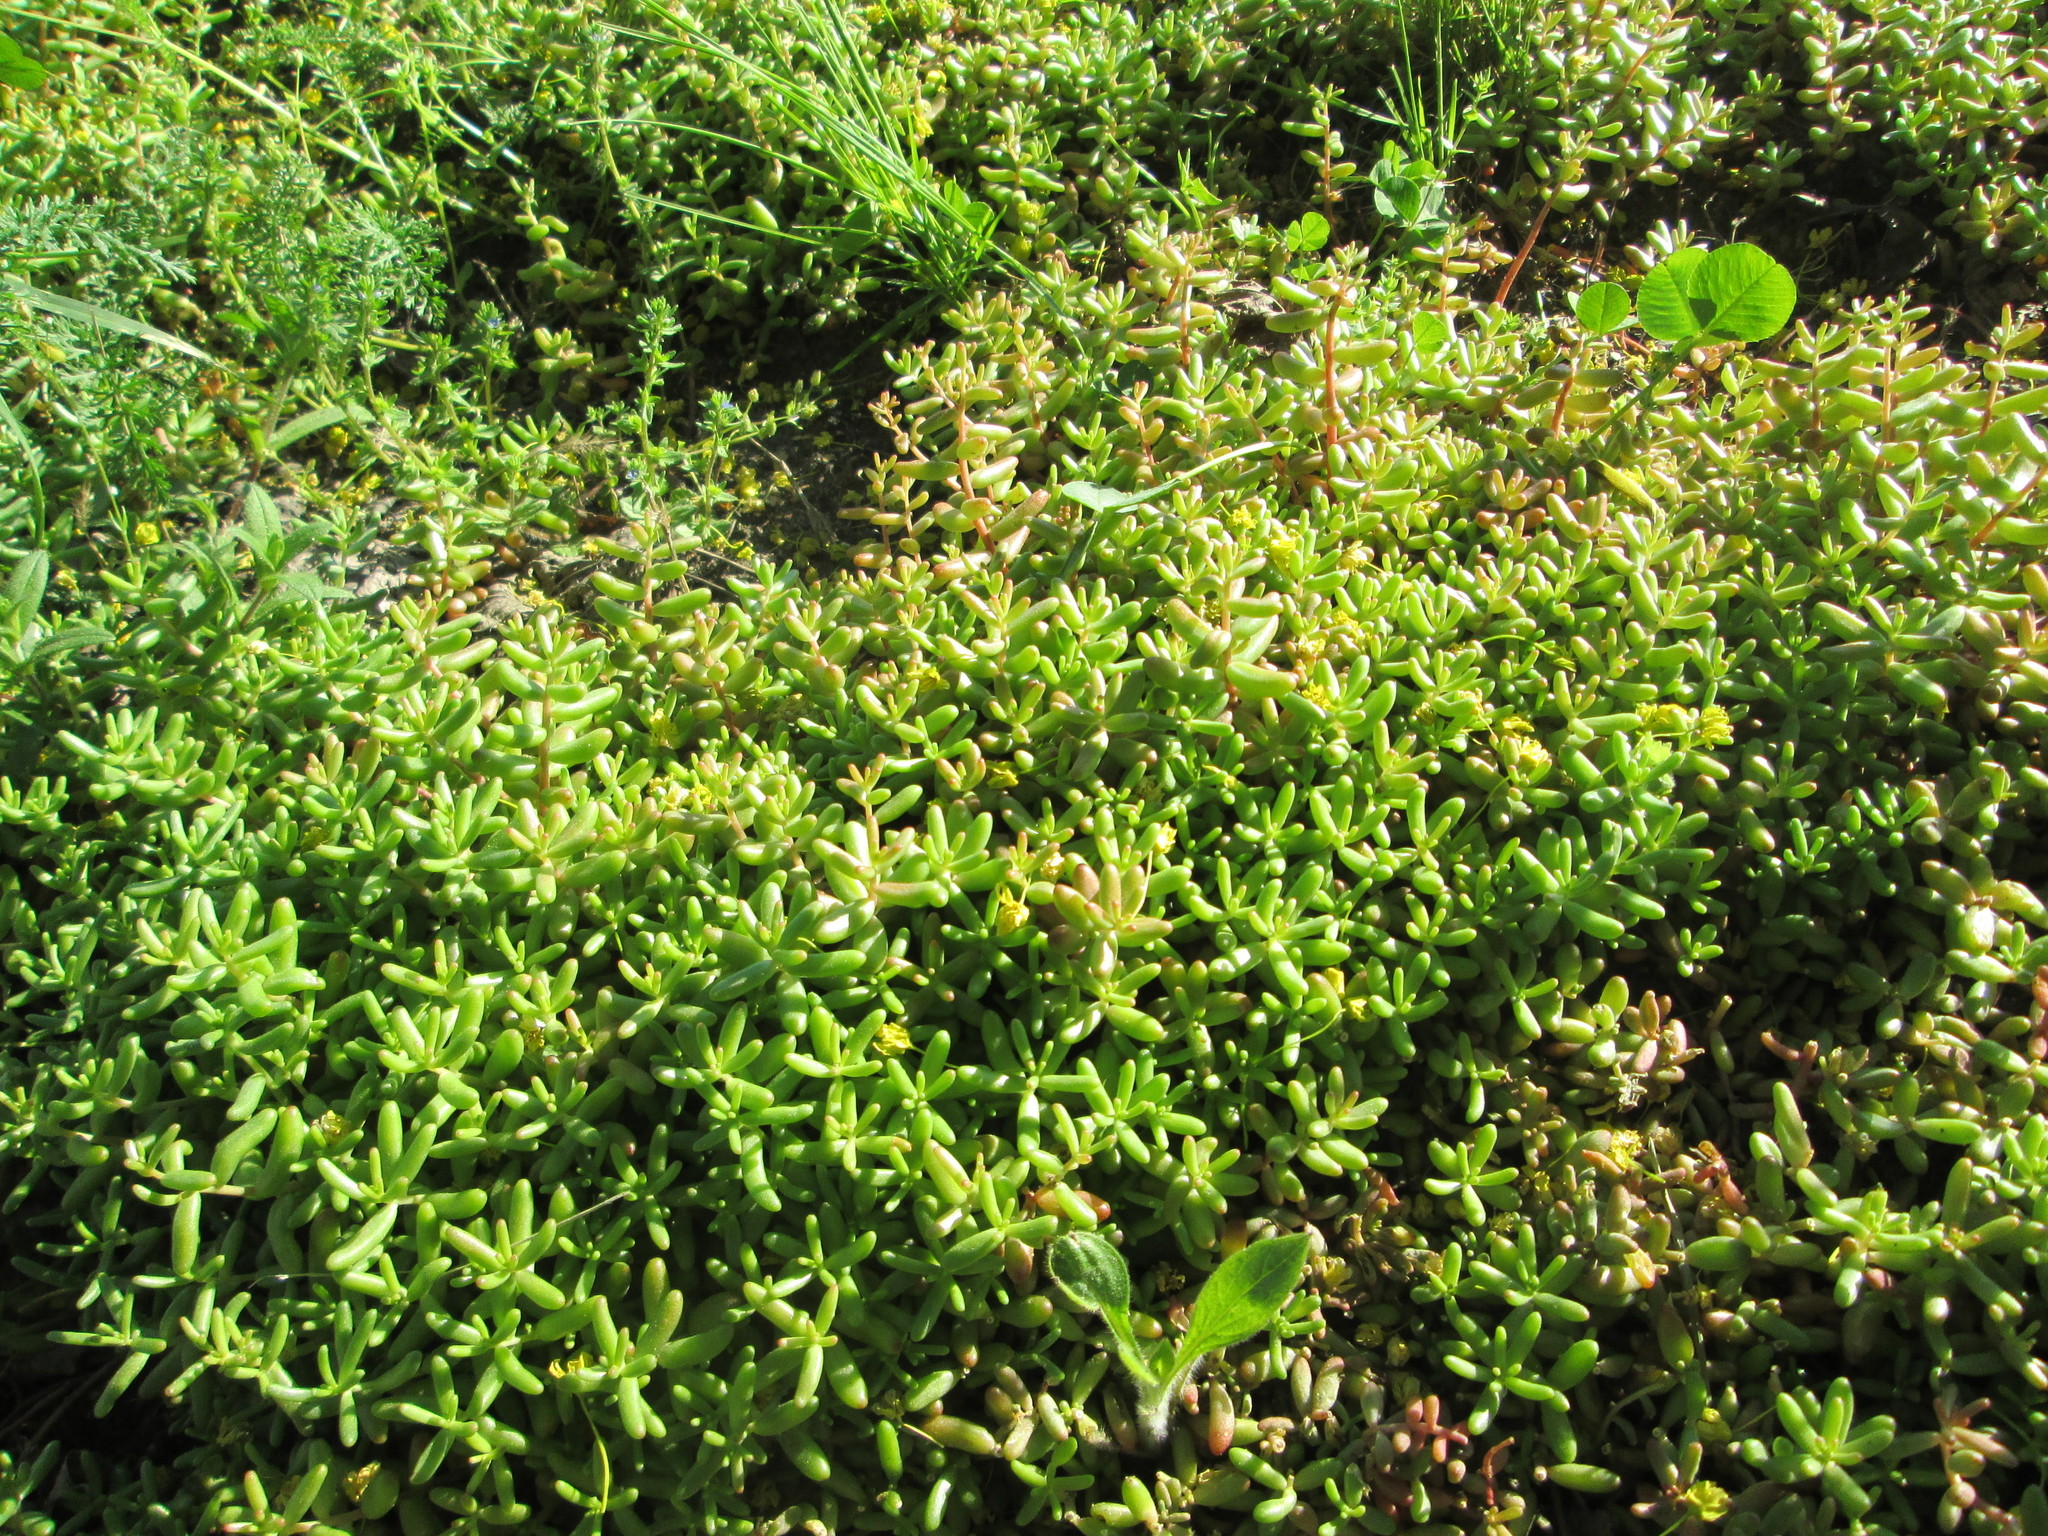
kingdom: Plantae
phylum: Tracheophyta
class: Magnoliopsida
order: Saxifragales
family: Crassulaceae
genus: Sedum
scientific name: Sedum album
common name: White stonecrop
